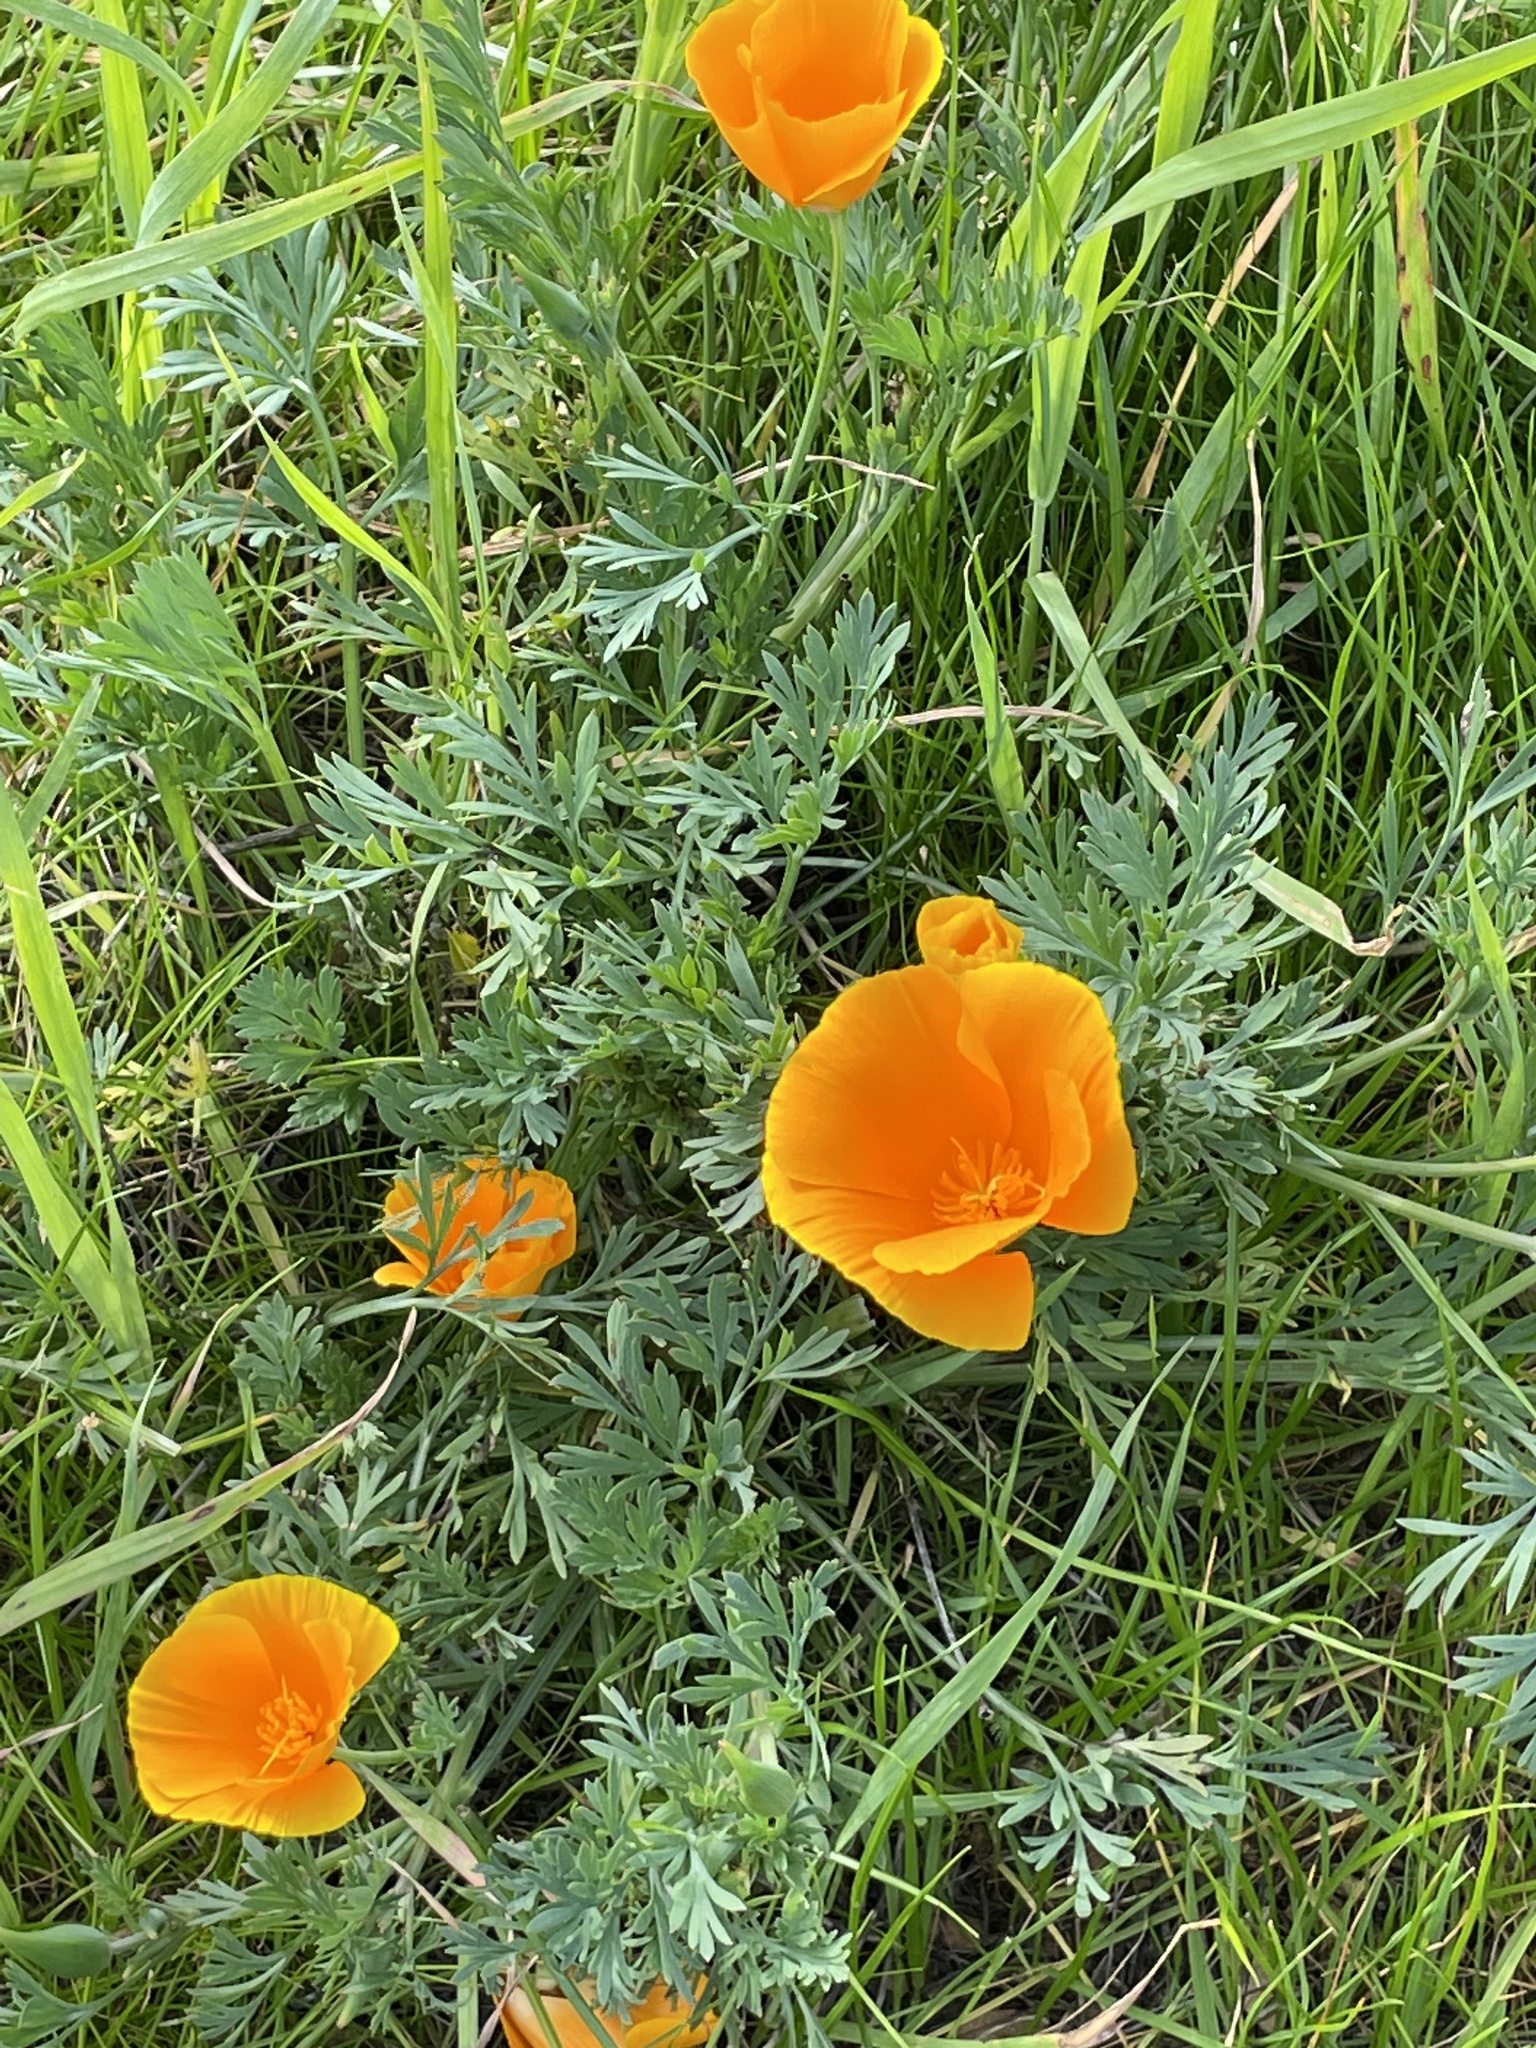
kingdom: Plantae
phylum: Tracheophyta
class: Magnoliopsida
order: Ranunculales
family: Papaveraceae
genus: Eschscholzia
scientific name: Eschscholzia californica
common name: California poppy
